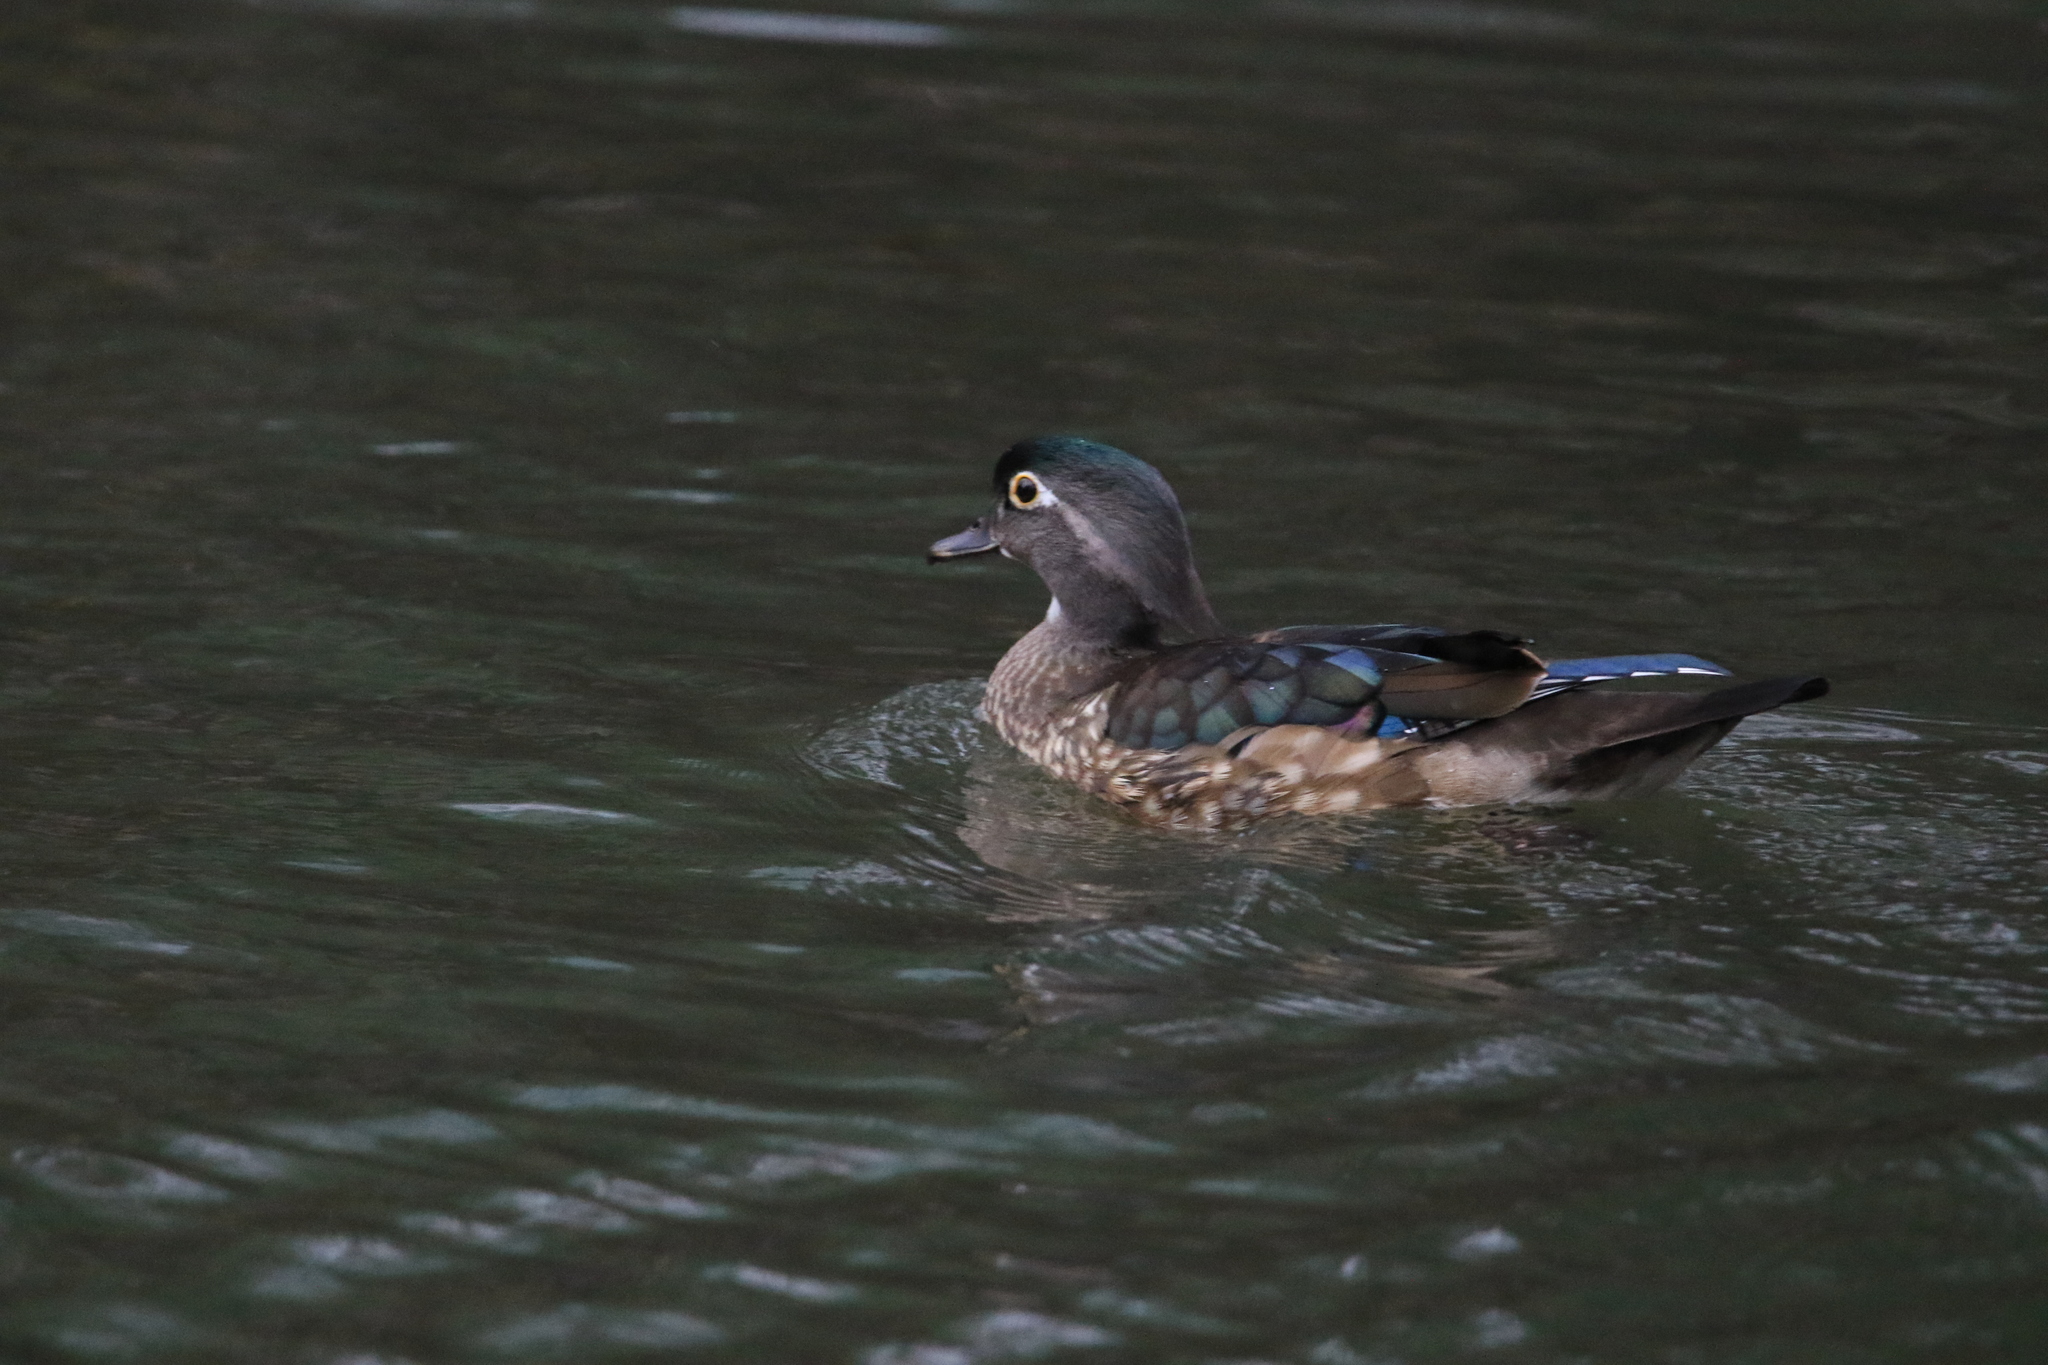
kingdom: Animalia
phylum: Chordata
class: Aves
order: Anseriformes
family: Anatidae
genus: Aix
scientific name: Aix sponsa
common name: Wood duck
